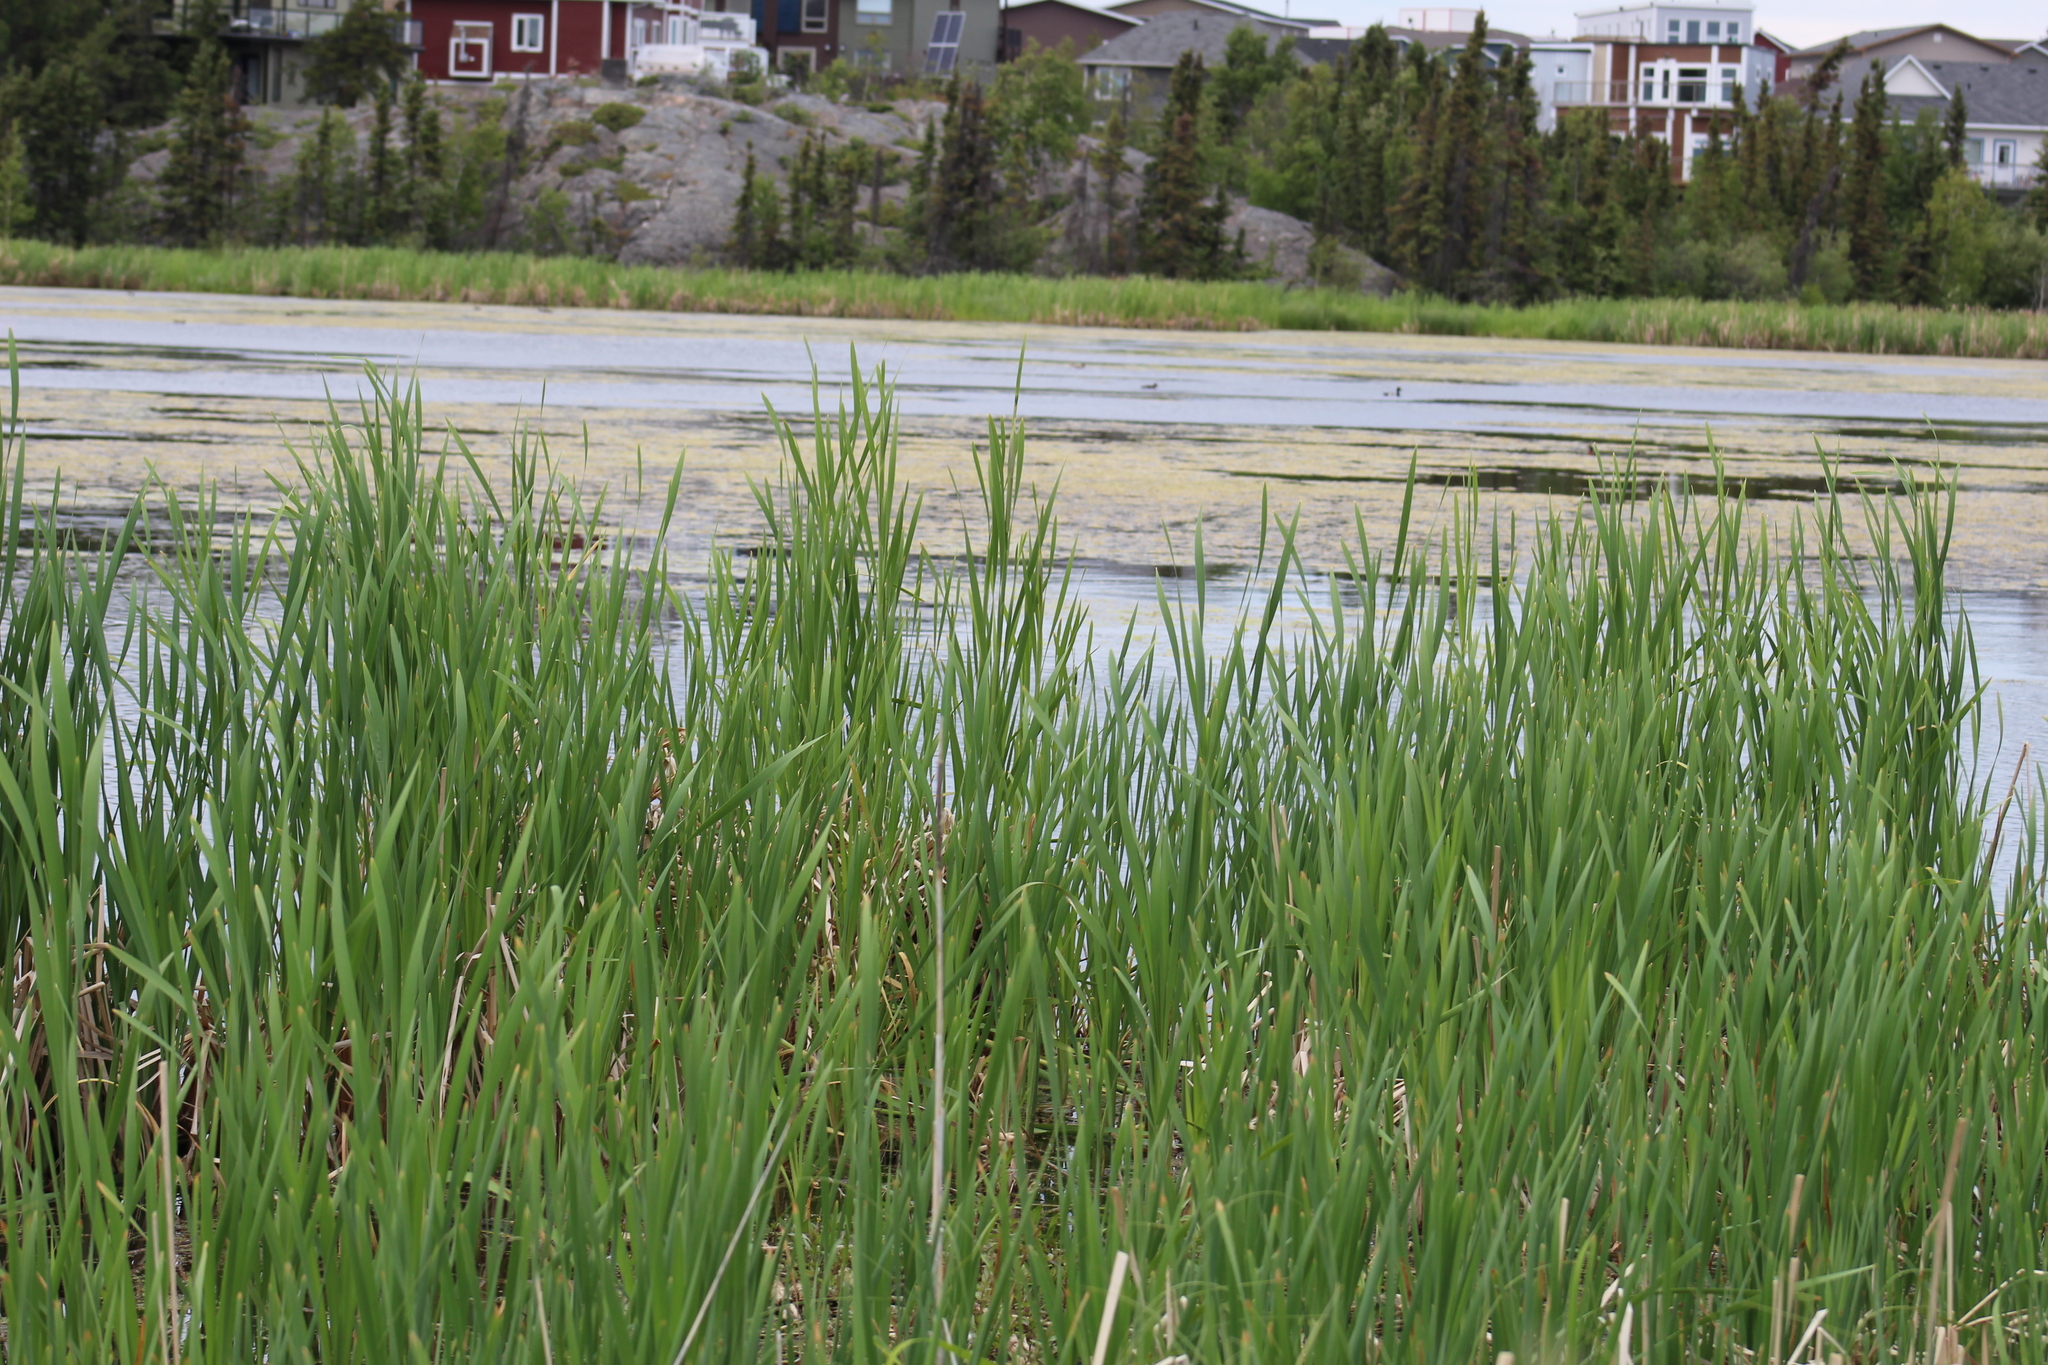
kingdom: Plantae
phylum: Tracheophyta
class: Liliopsida
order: Poales
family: Typhaceae
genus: Typha
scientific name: Typha latifolia
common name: Broadleaf cattail
